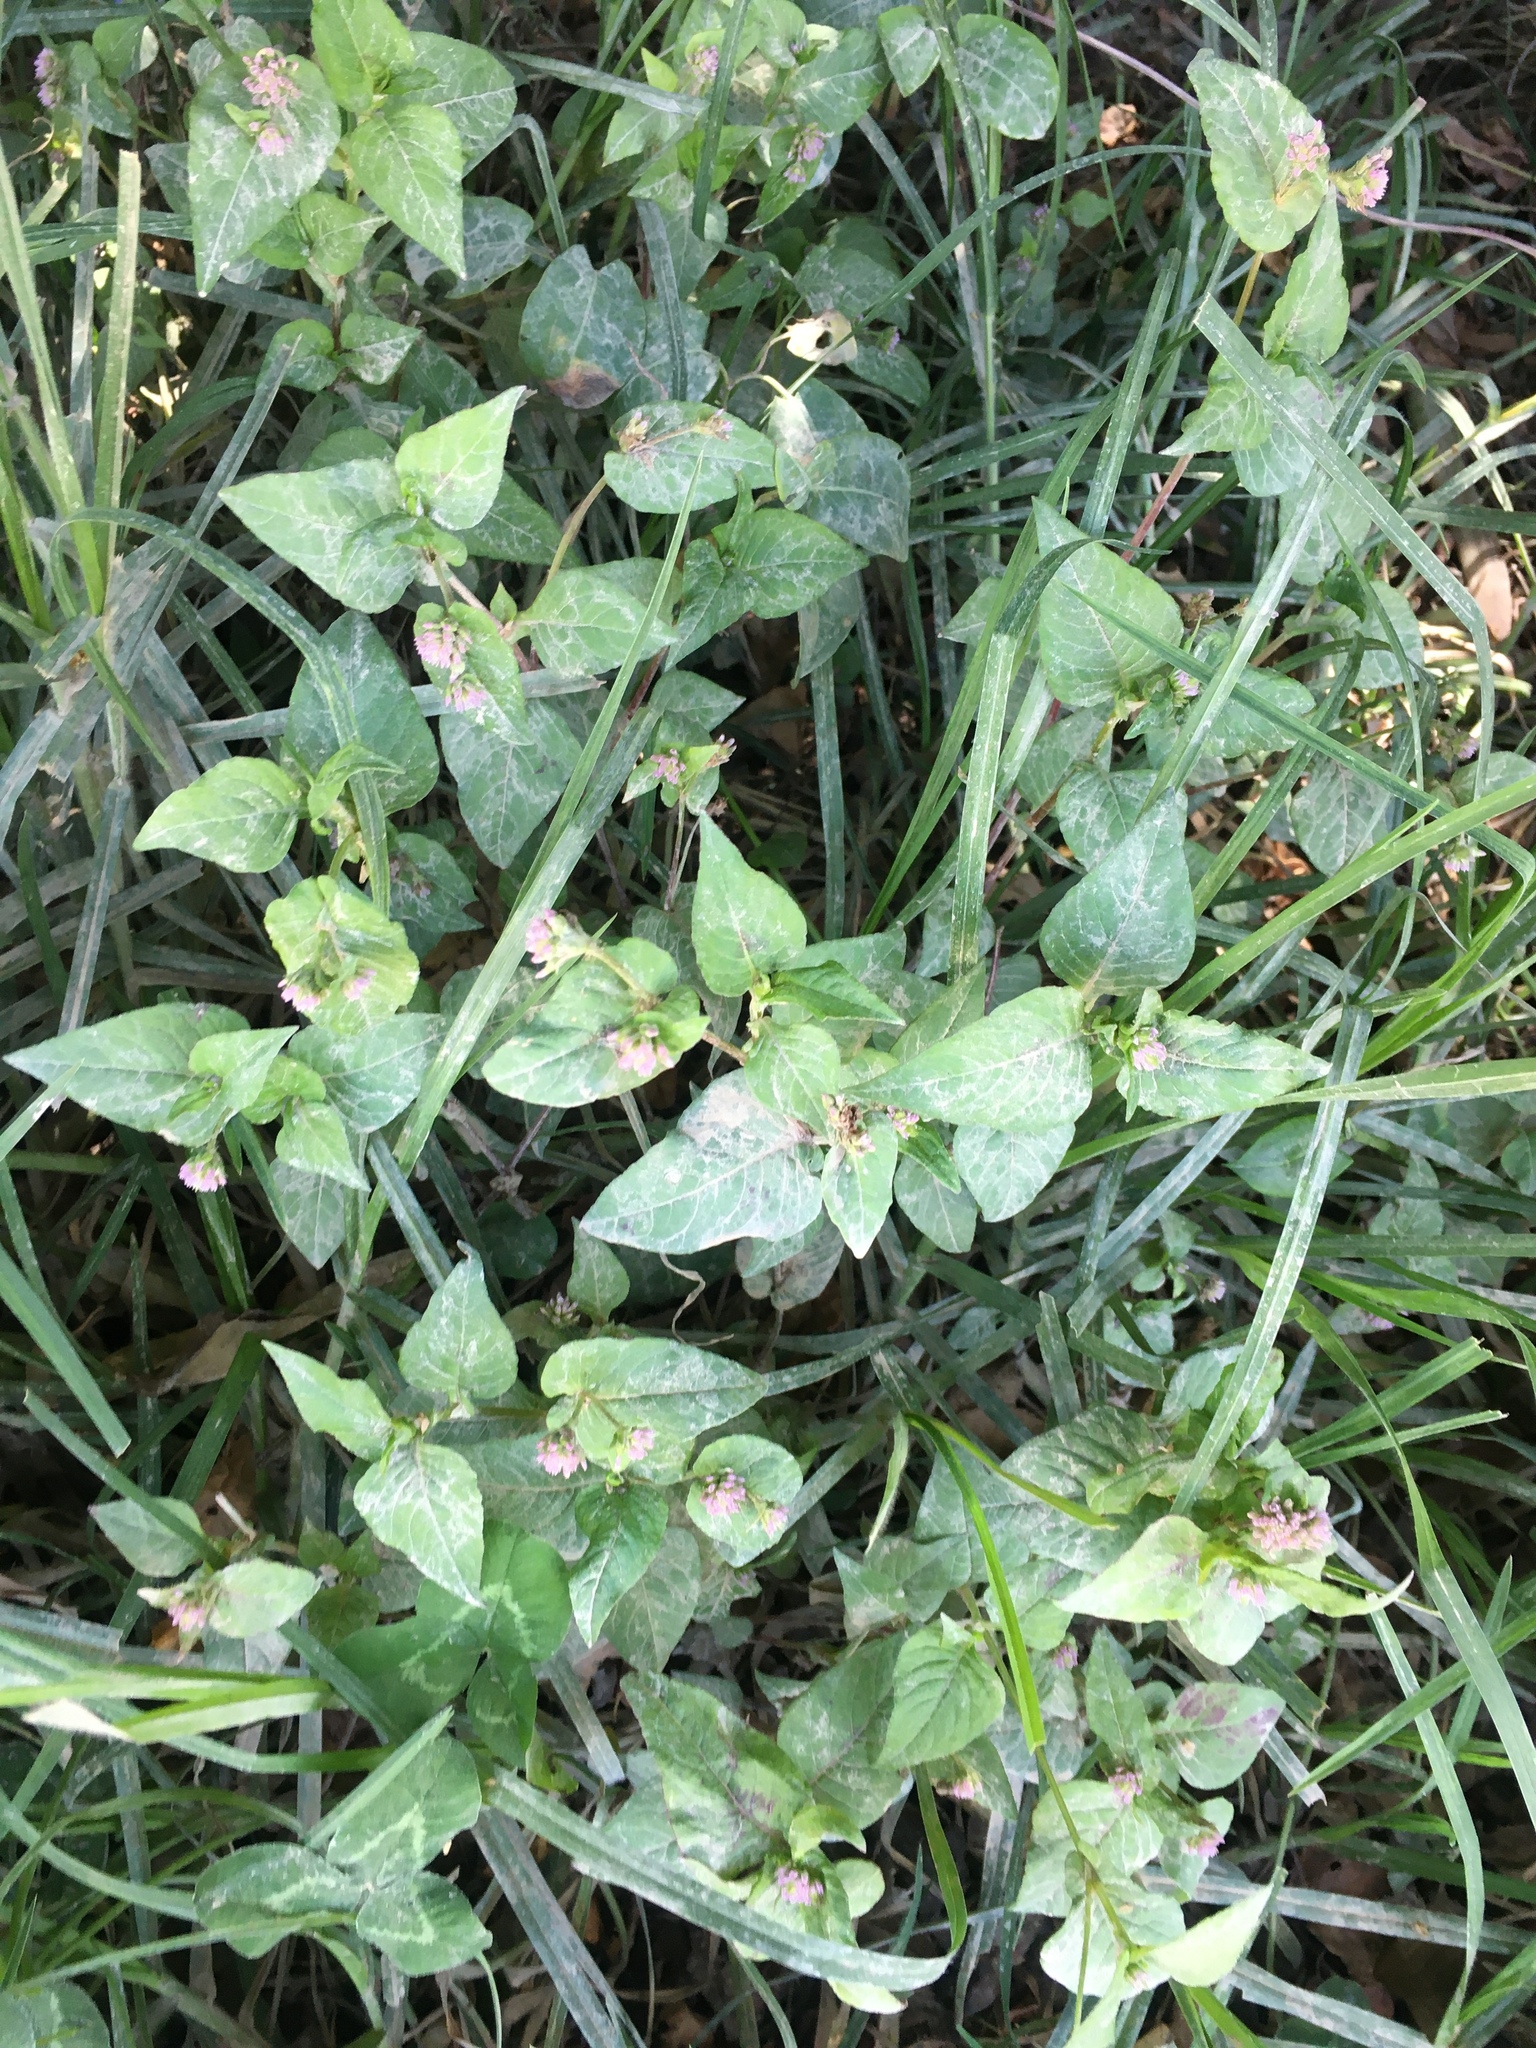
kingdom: Plantae
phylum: Tracheophyta
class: Magnoliopsida
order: Caryophyllales
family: Polygonaceae
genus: Persicaria
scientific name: Persicaria nepalensis
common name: Nepal persicaria
